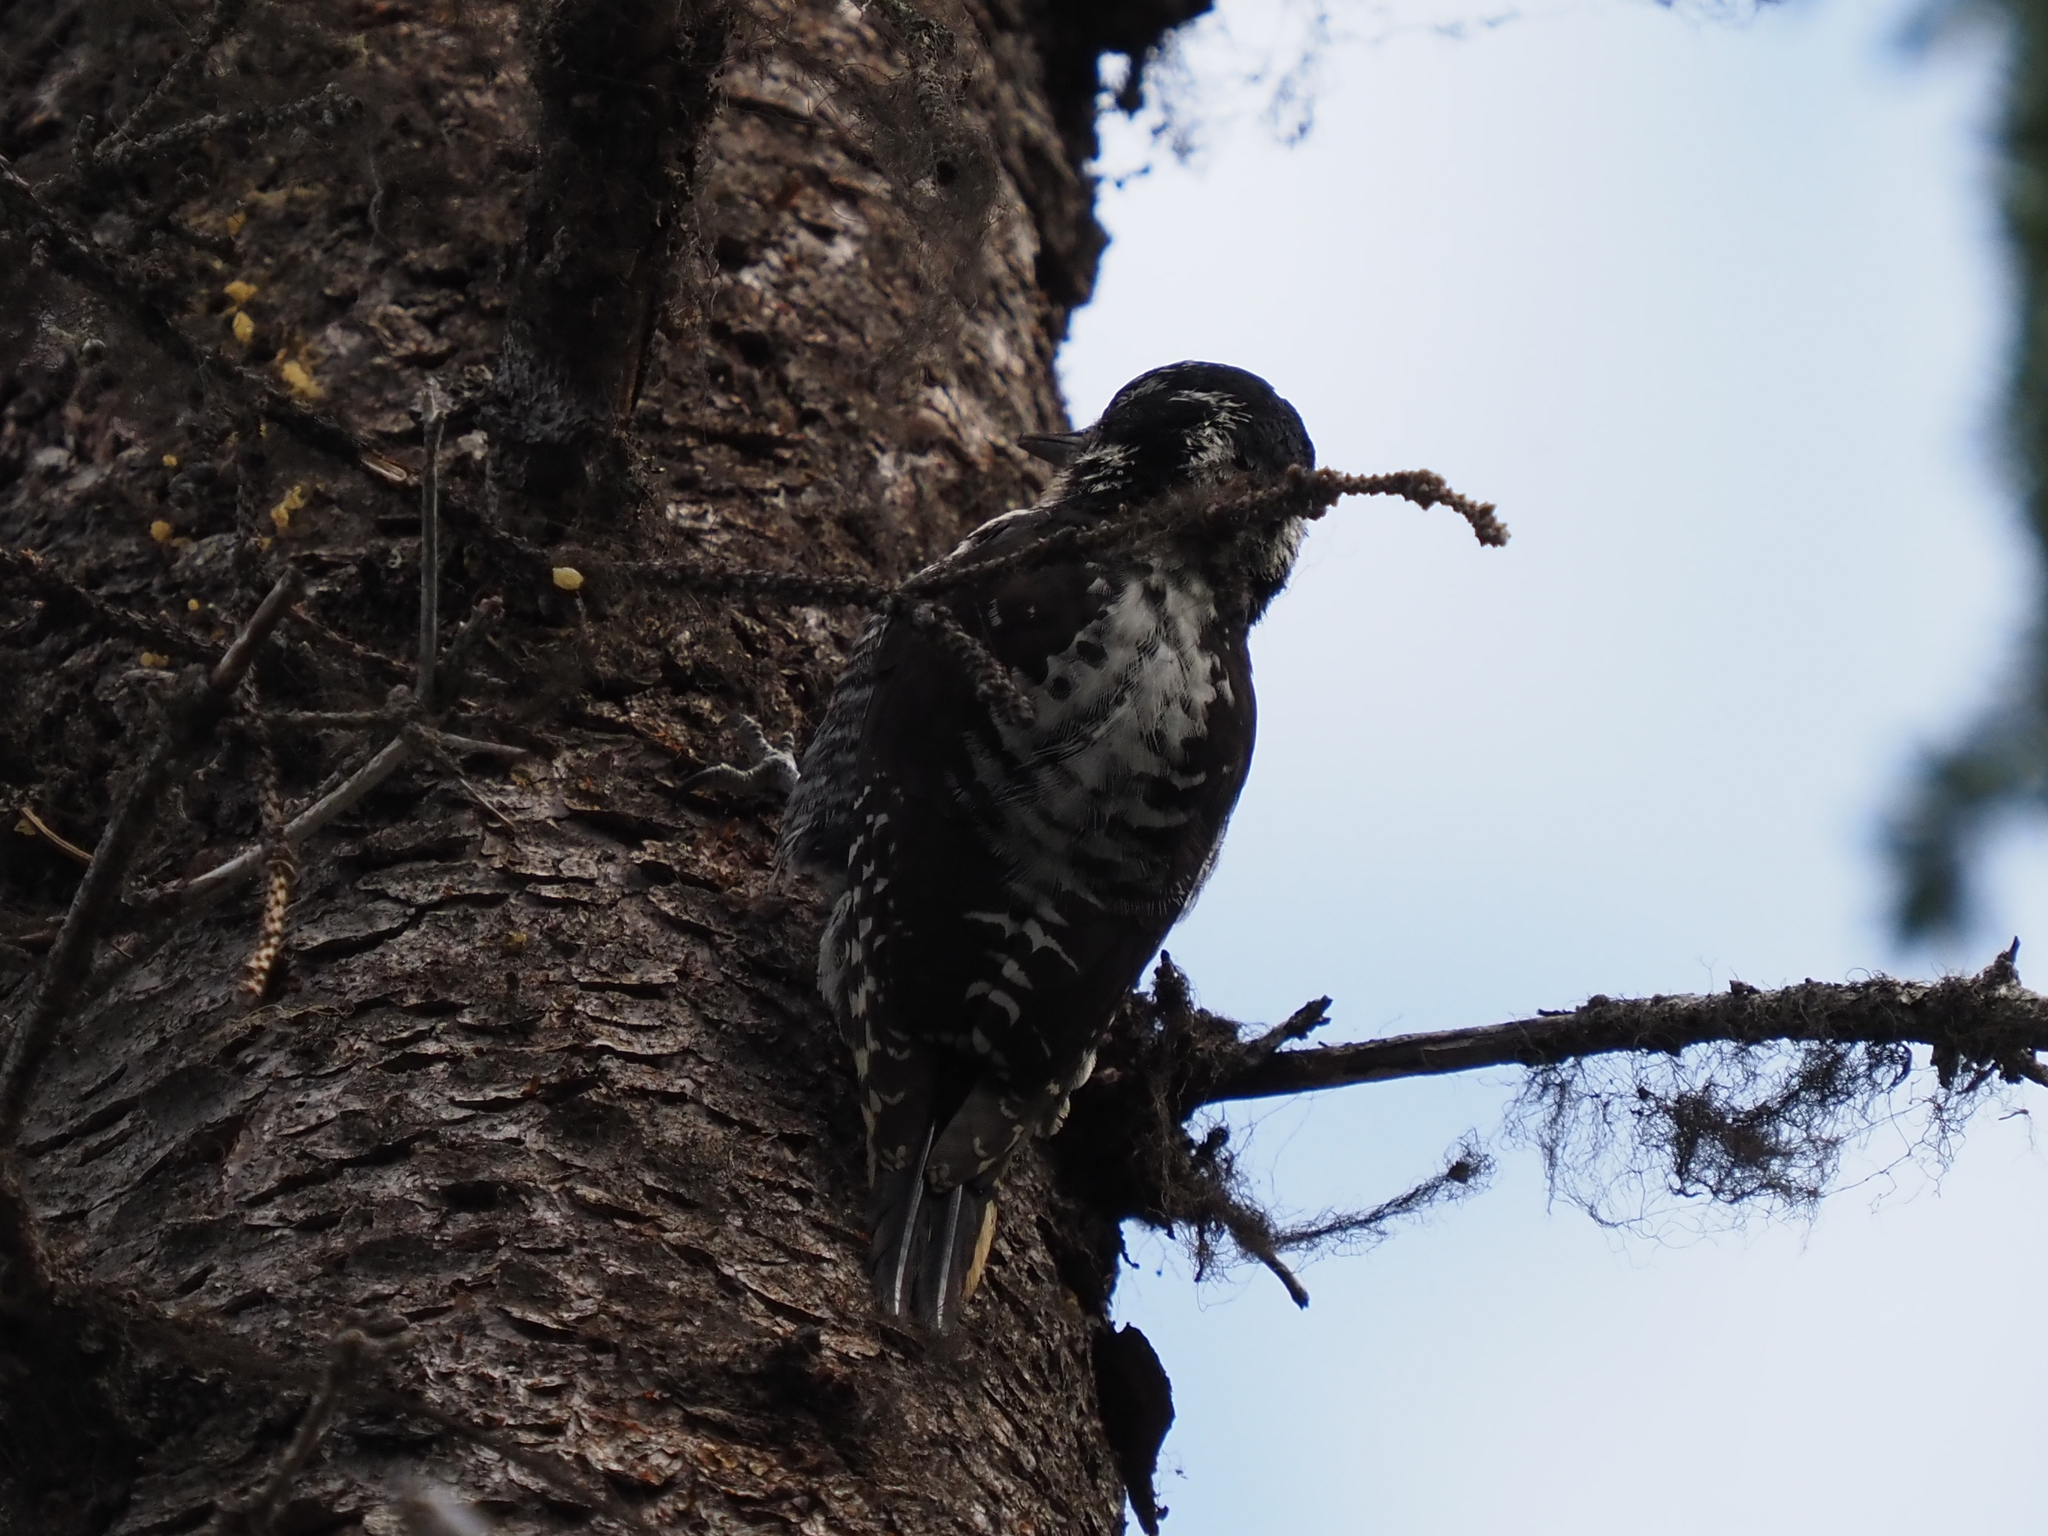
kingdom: Animalia
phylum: Chordata
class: Aves
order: Piciformes
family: Picidae
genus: Picoides
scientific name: Picoides dorsalis
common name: American three-toed woodpecker
